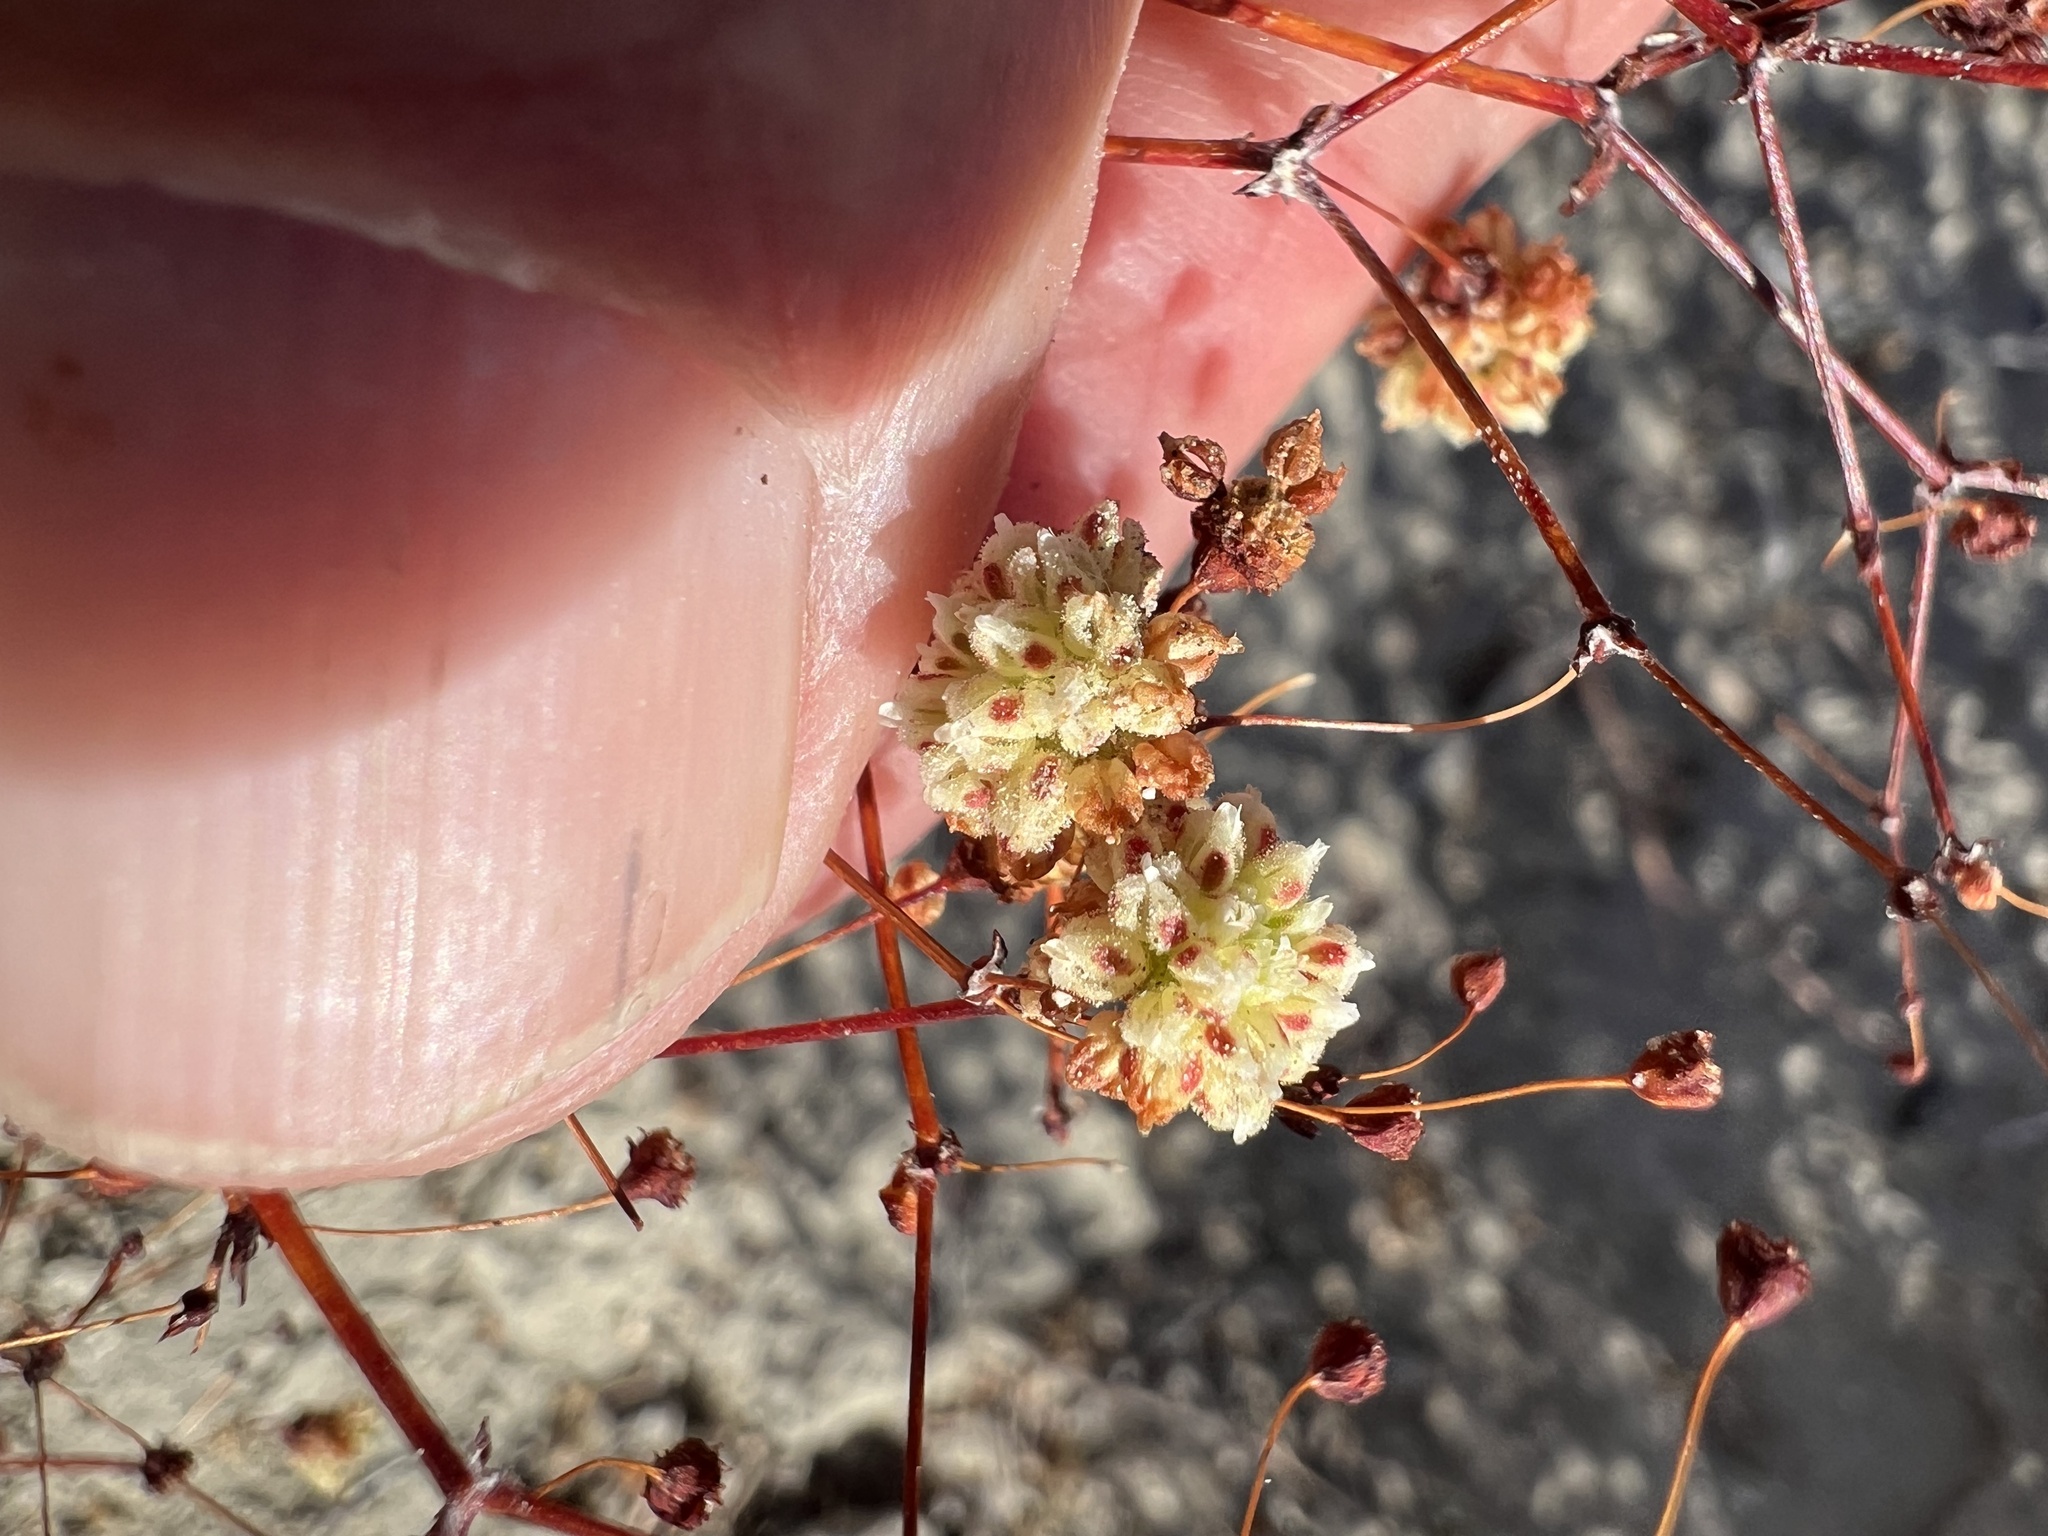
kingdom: Plantae
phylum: Tracheophyta
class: Magnoliopsida
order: Caryophyllales
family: Polygonaceae
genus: Eriogonum
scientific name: Eriogonum maculatum
